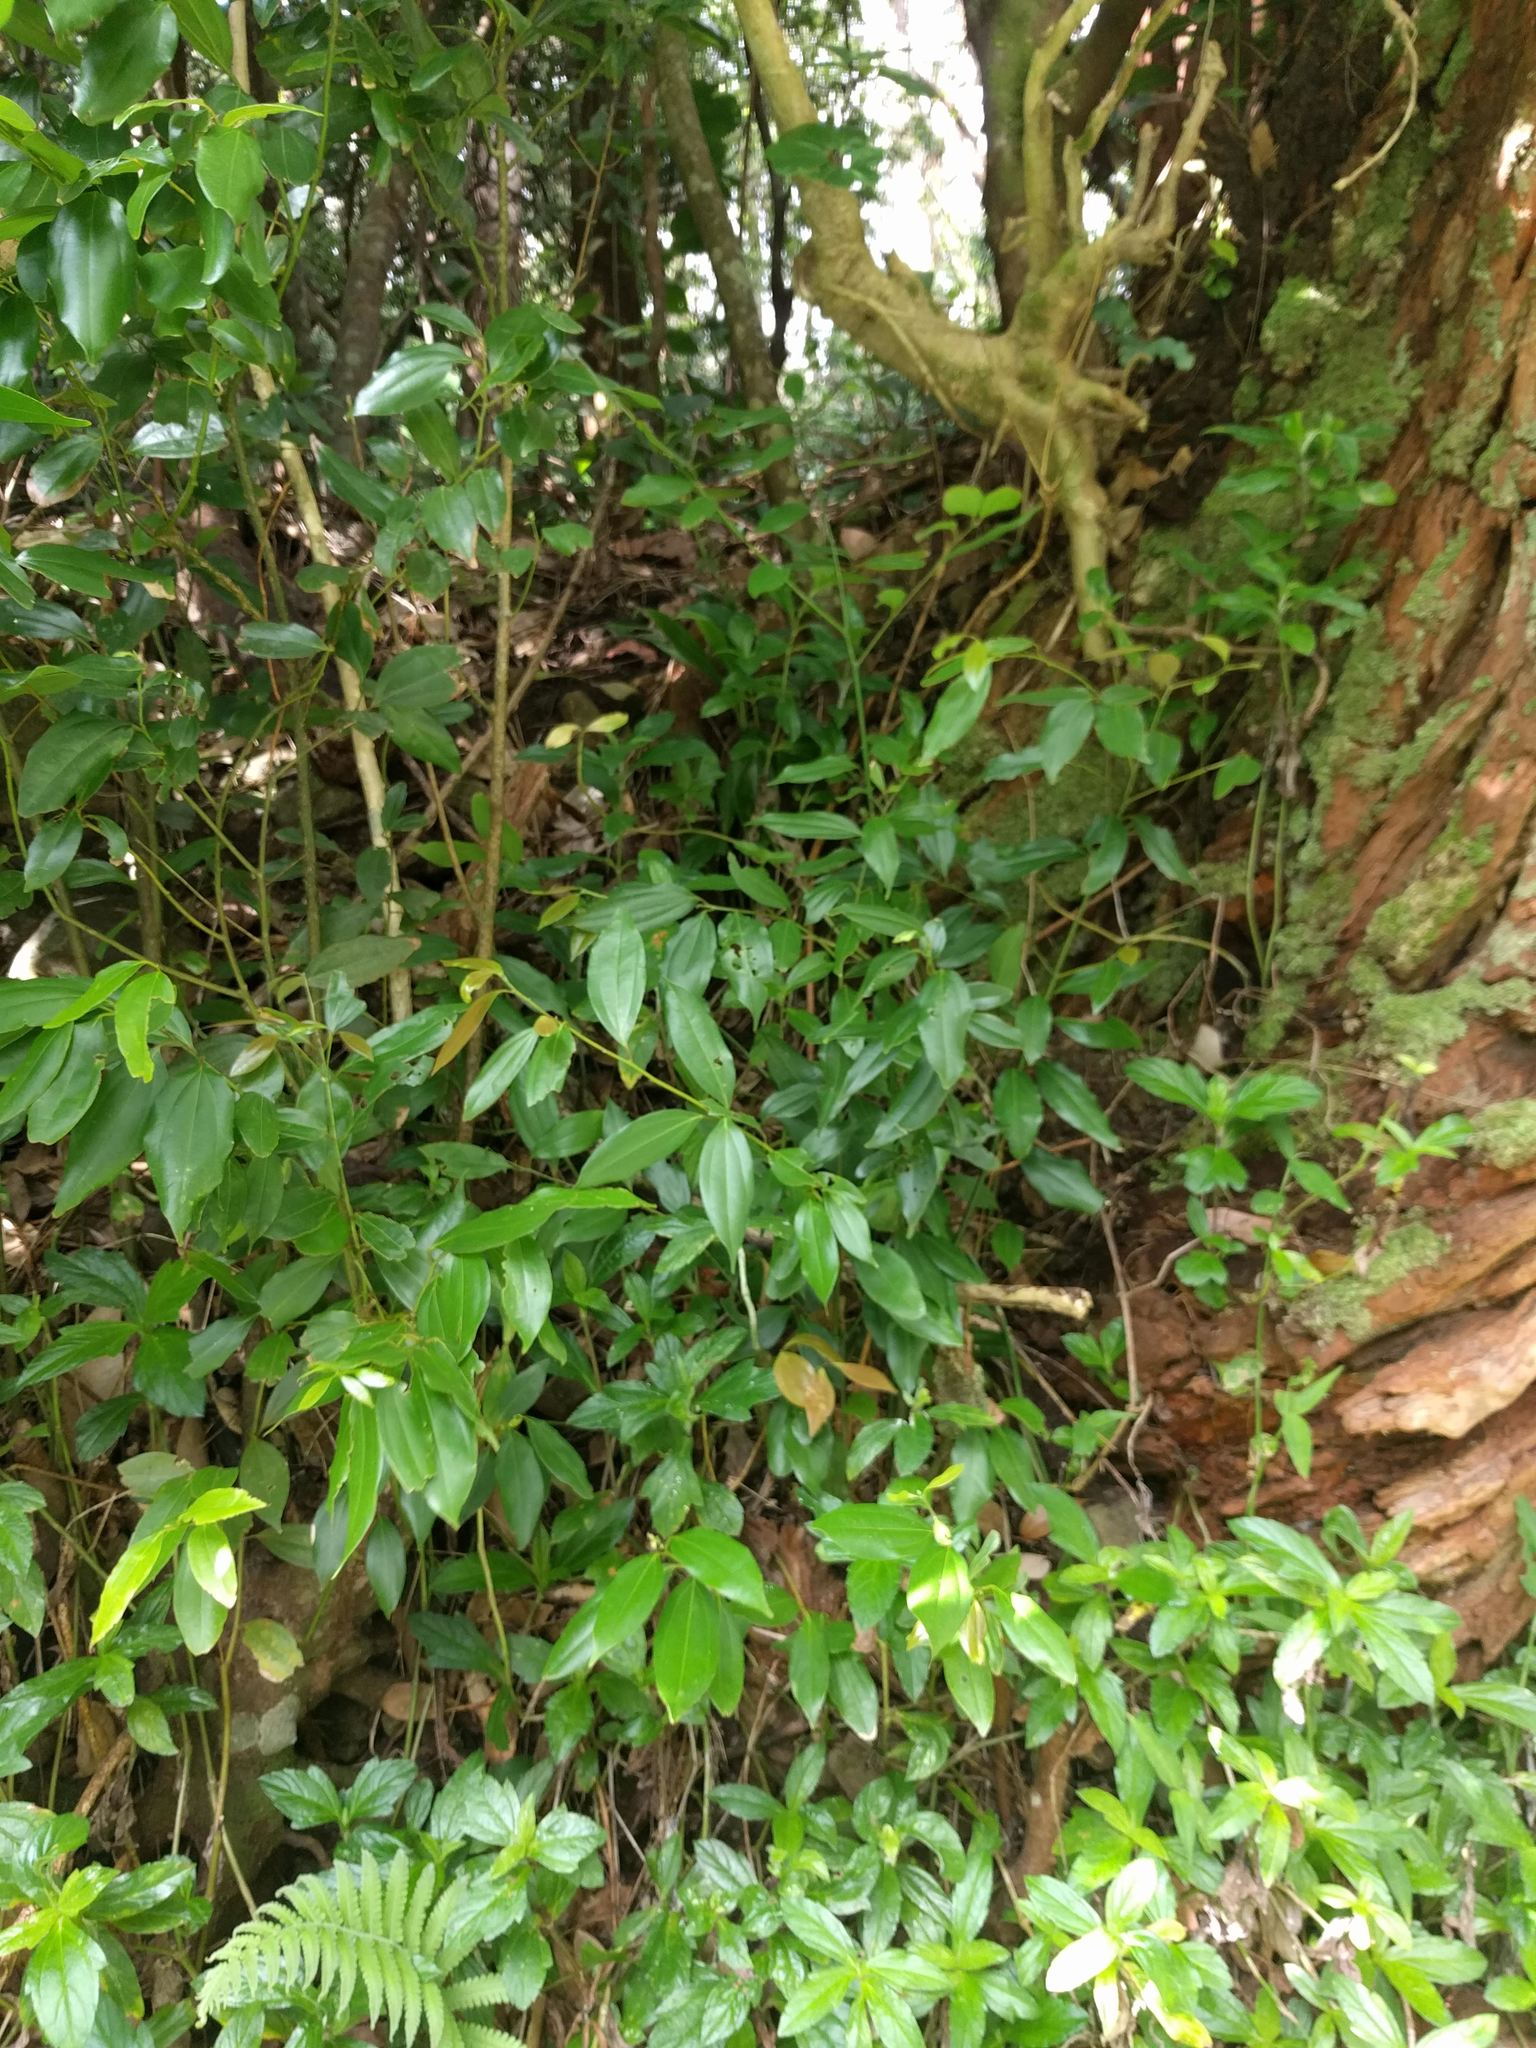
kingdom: Plantae
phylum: Tracheophyta
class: Magnoliopsida
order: Laurales
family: Lauraceae
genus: Cinnamomum
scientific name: Cinnamomum burmanni
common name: Padang cassia
